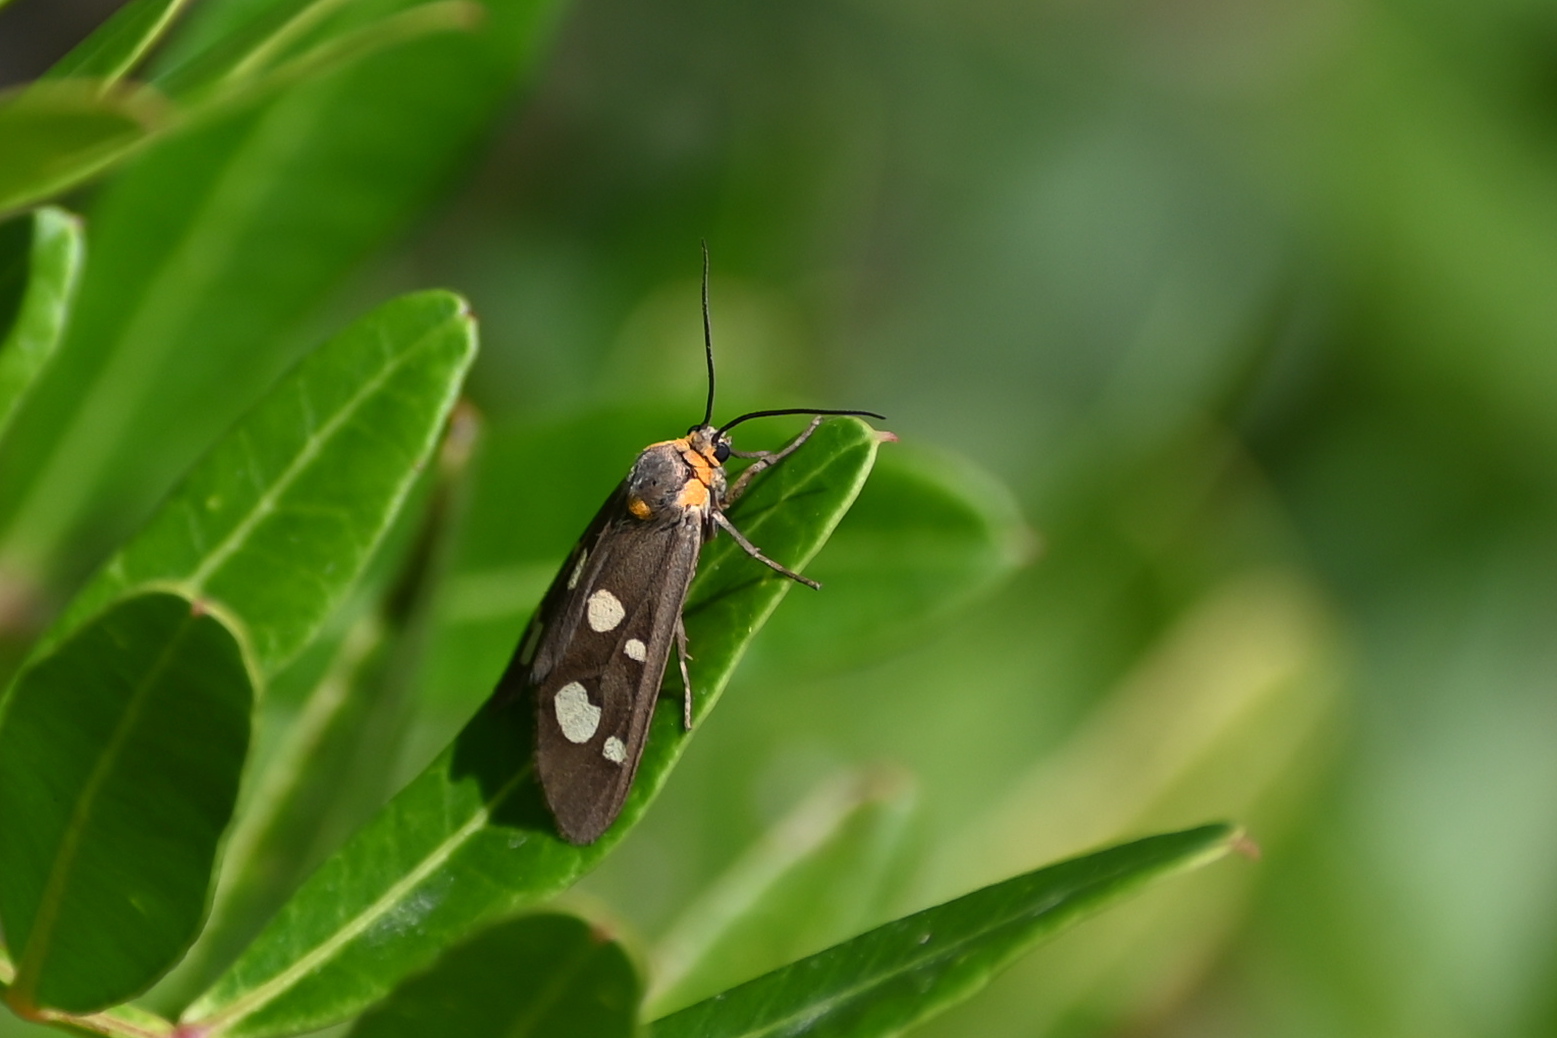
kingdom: Animalia
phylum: Arthropoda
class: Insecta
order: Lepidoptera
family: Erebidae
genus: Dysauxes
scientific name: Dysauxes punctata
